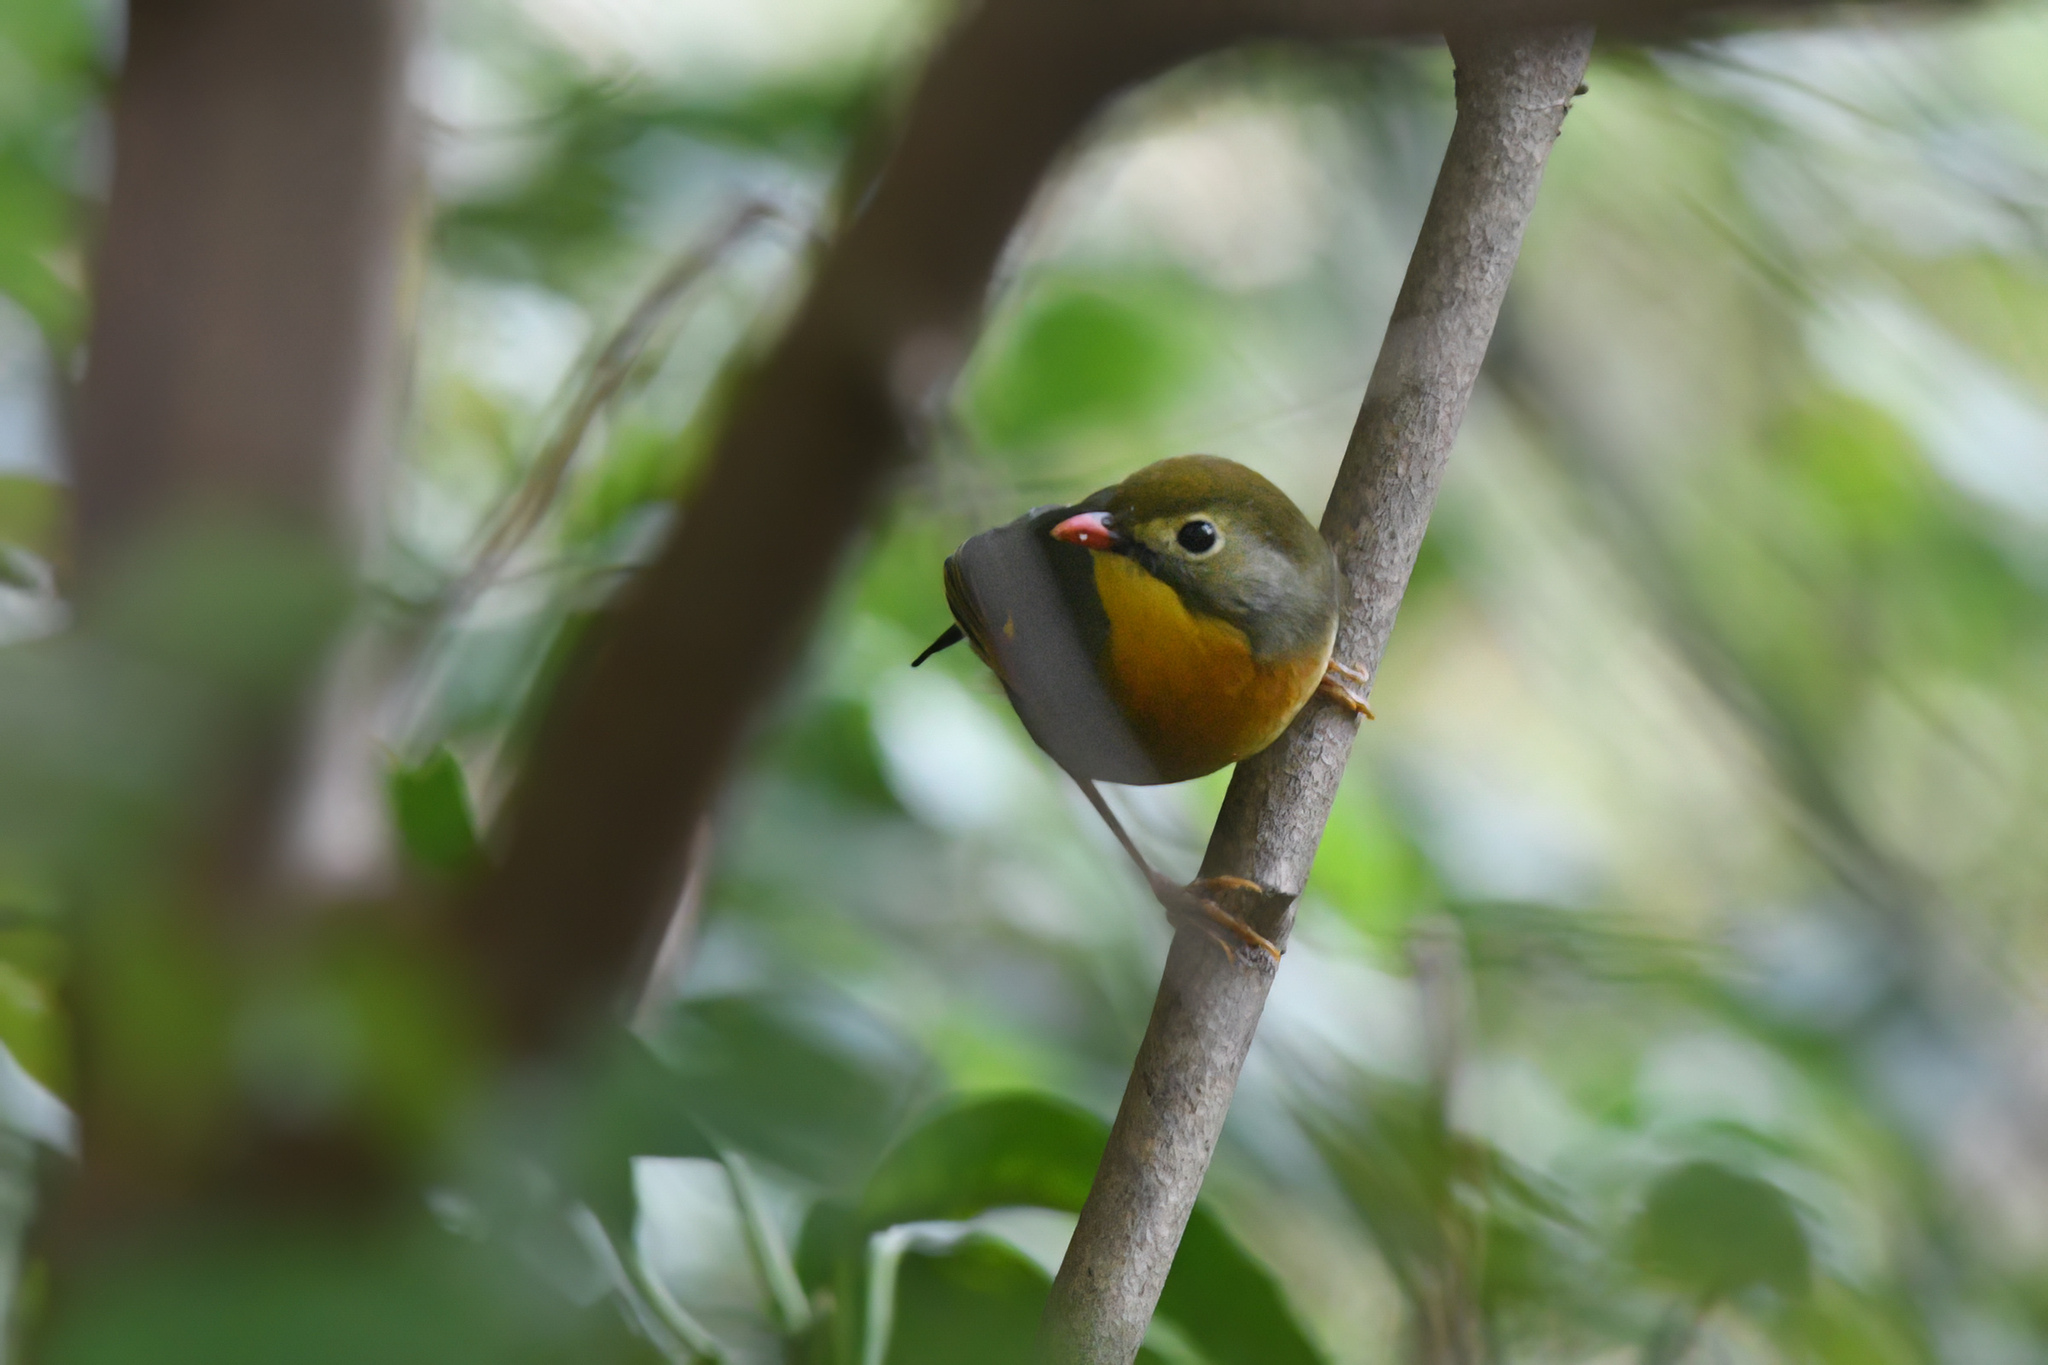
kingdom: Animalia
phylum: Chordata
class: Aves
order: Passeriformes
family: Leiothrichidae
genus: Leiothrix
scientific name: Leiothrix lutea
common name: Red-billed leiothrix
